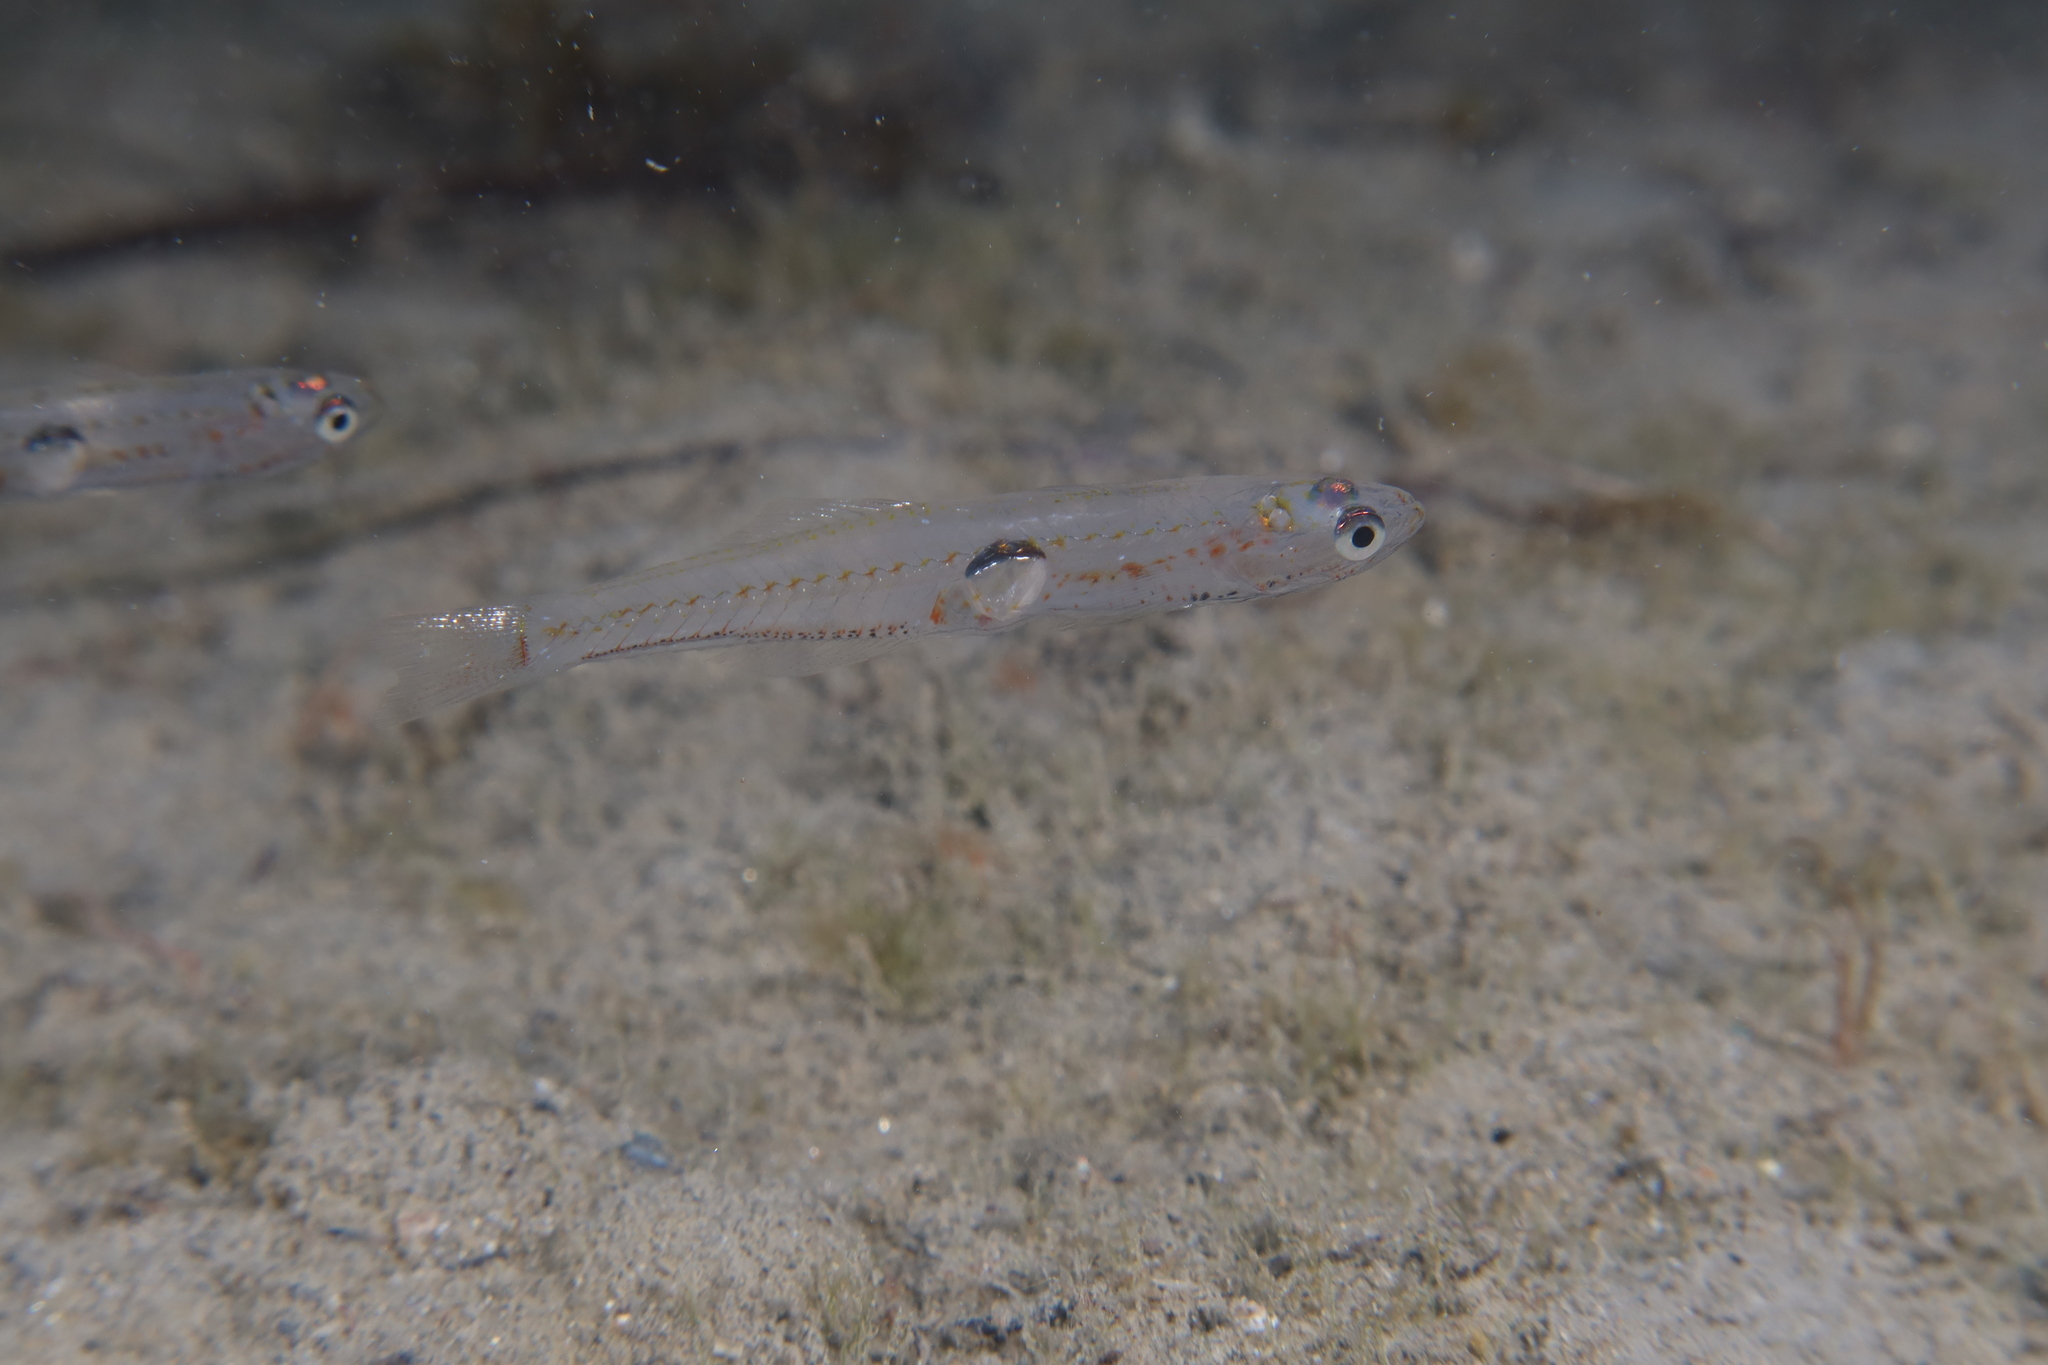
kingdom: Animalia
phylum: Chordata
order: Perciformes
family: Gobiidae
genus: Aphia
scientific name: Aphia minuta
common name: Transparent goby
